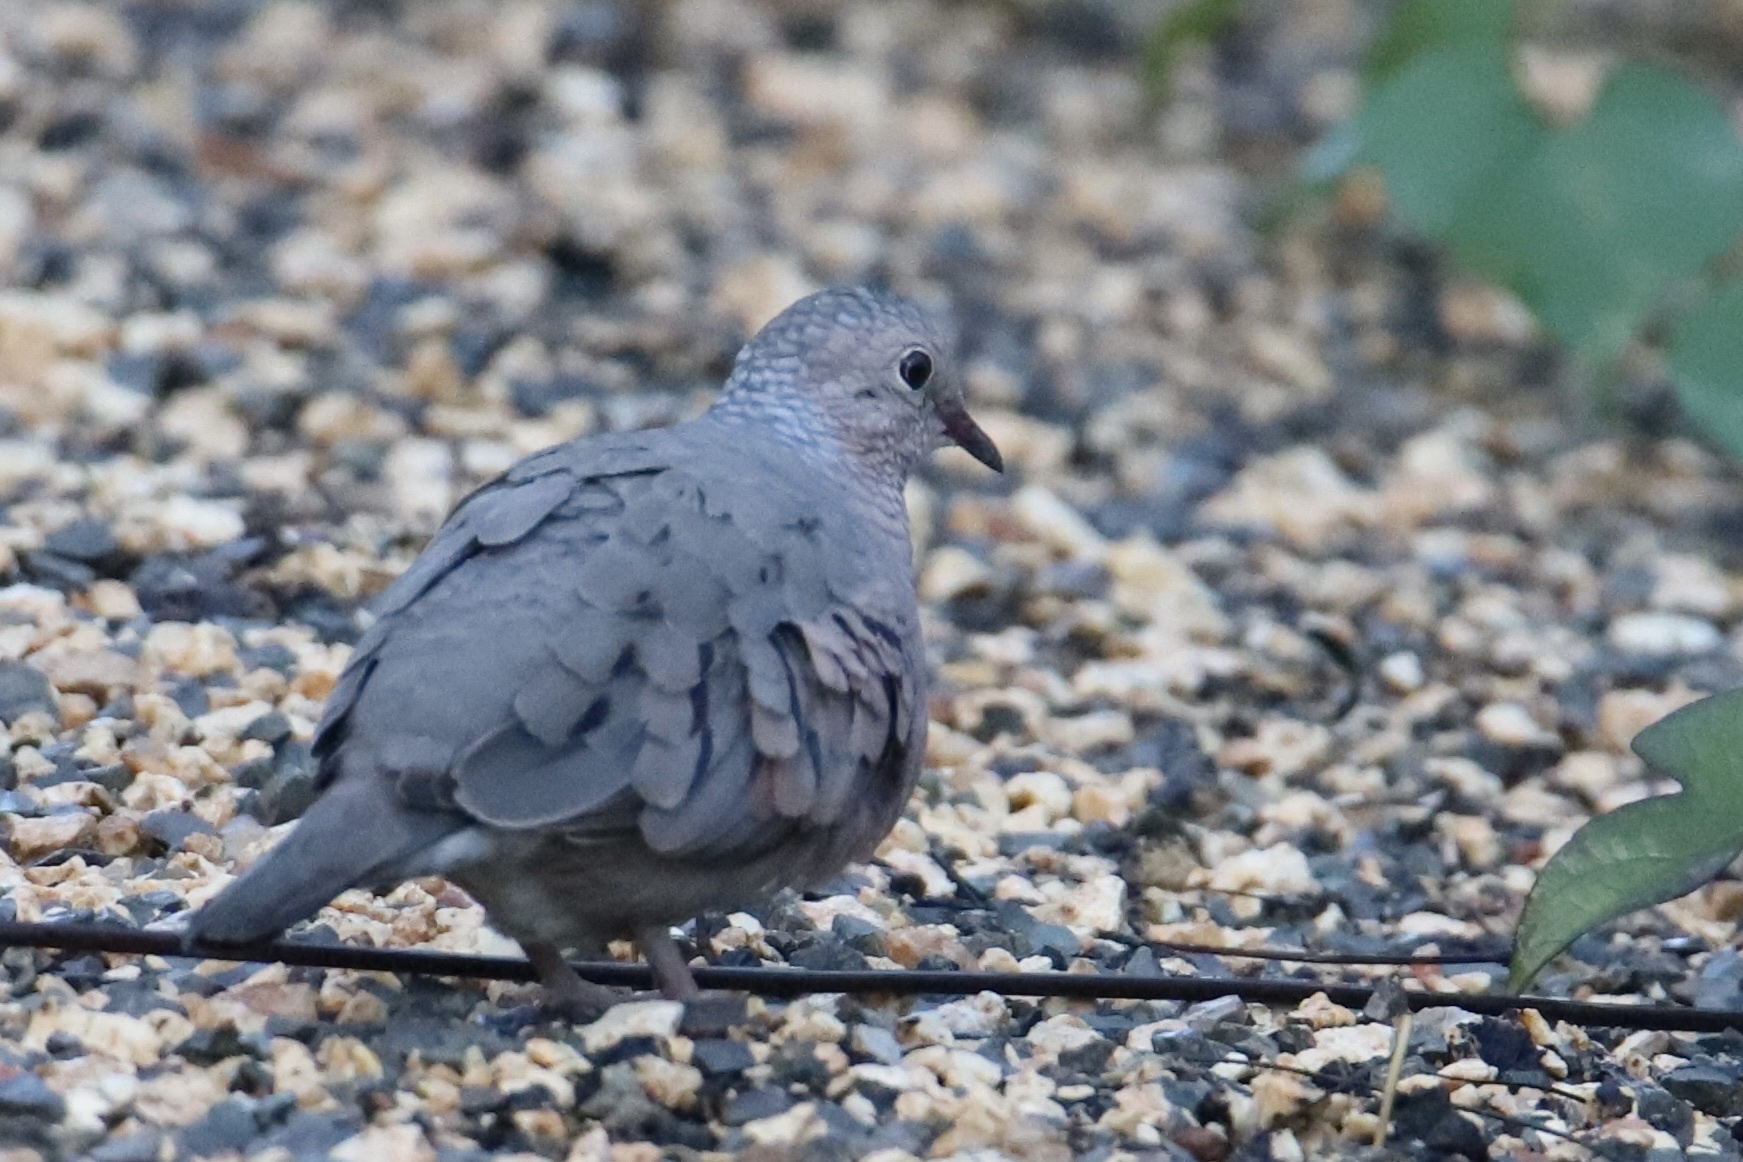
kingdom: Animalia
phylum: Chordata
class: Aves
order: Columbiformes
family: Columbidae
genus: Columbina
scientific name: Columbina passerina
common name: Common ground-dove
